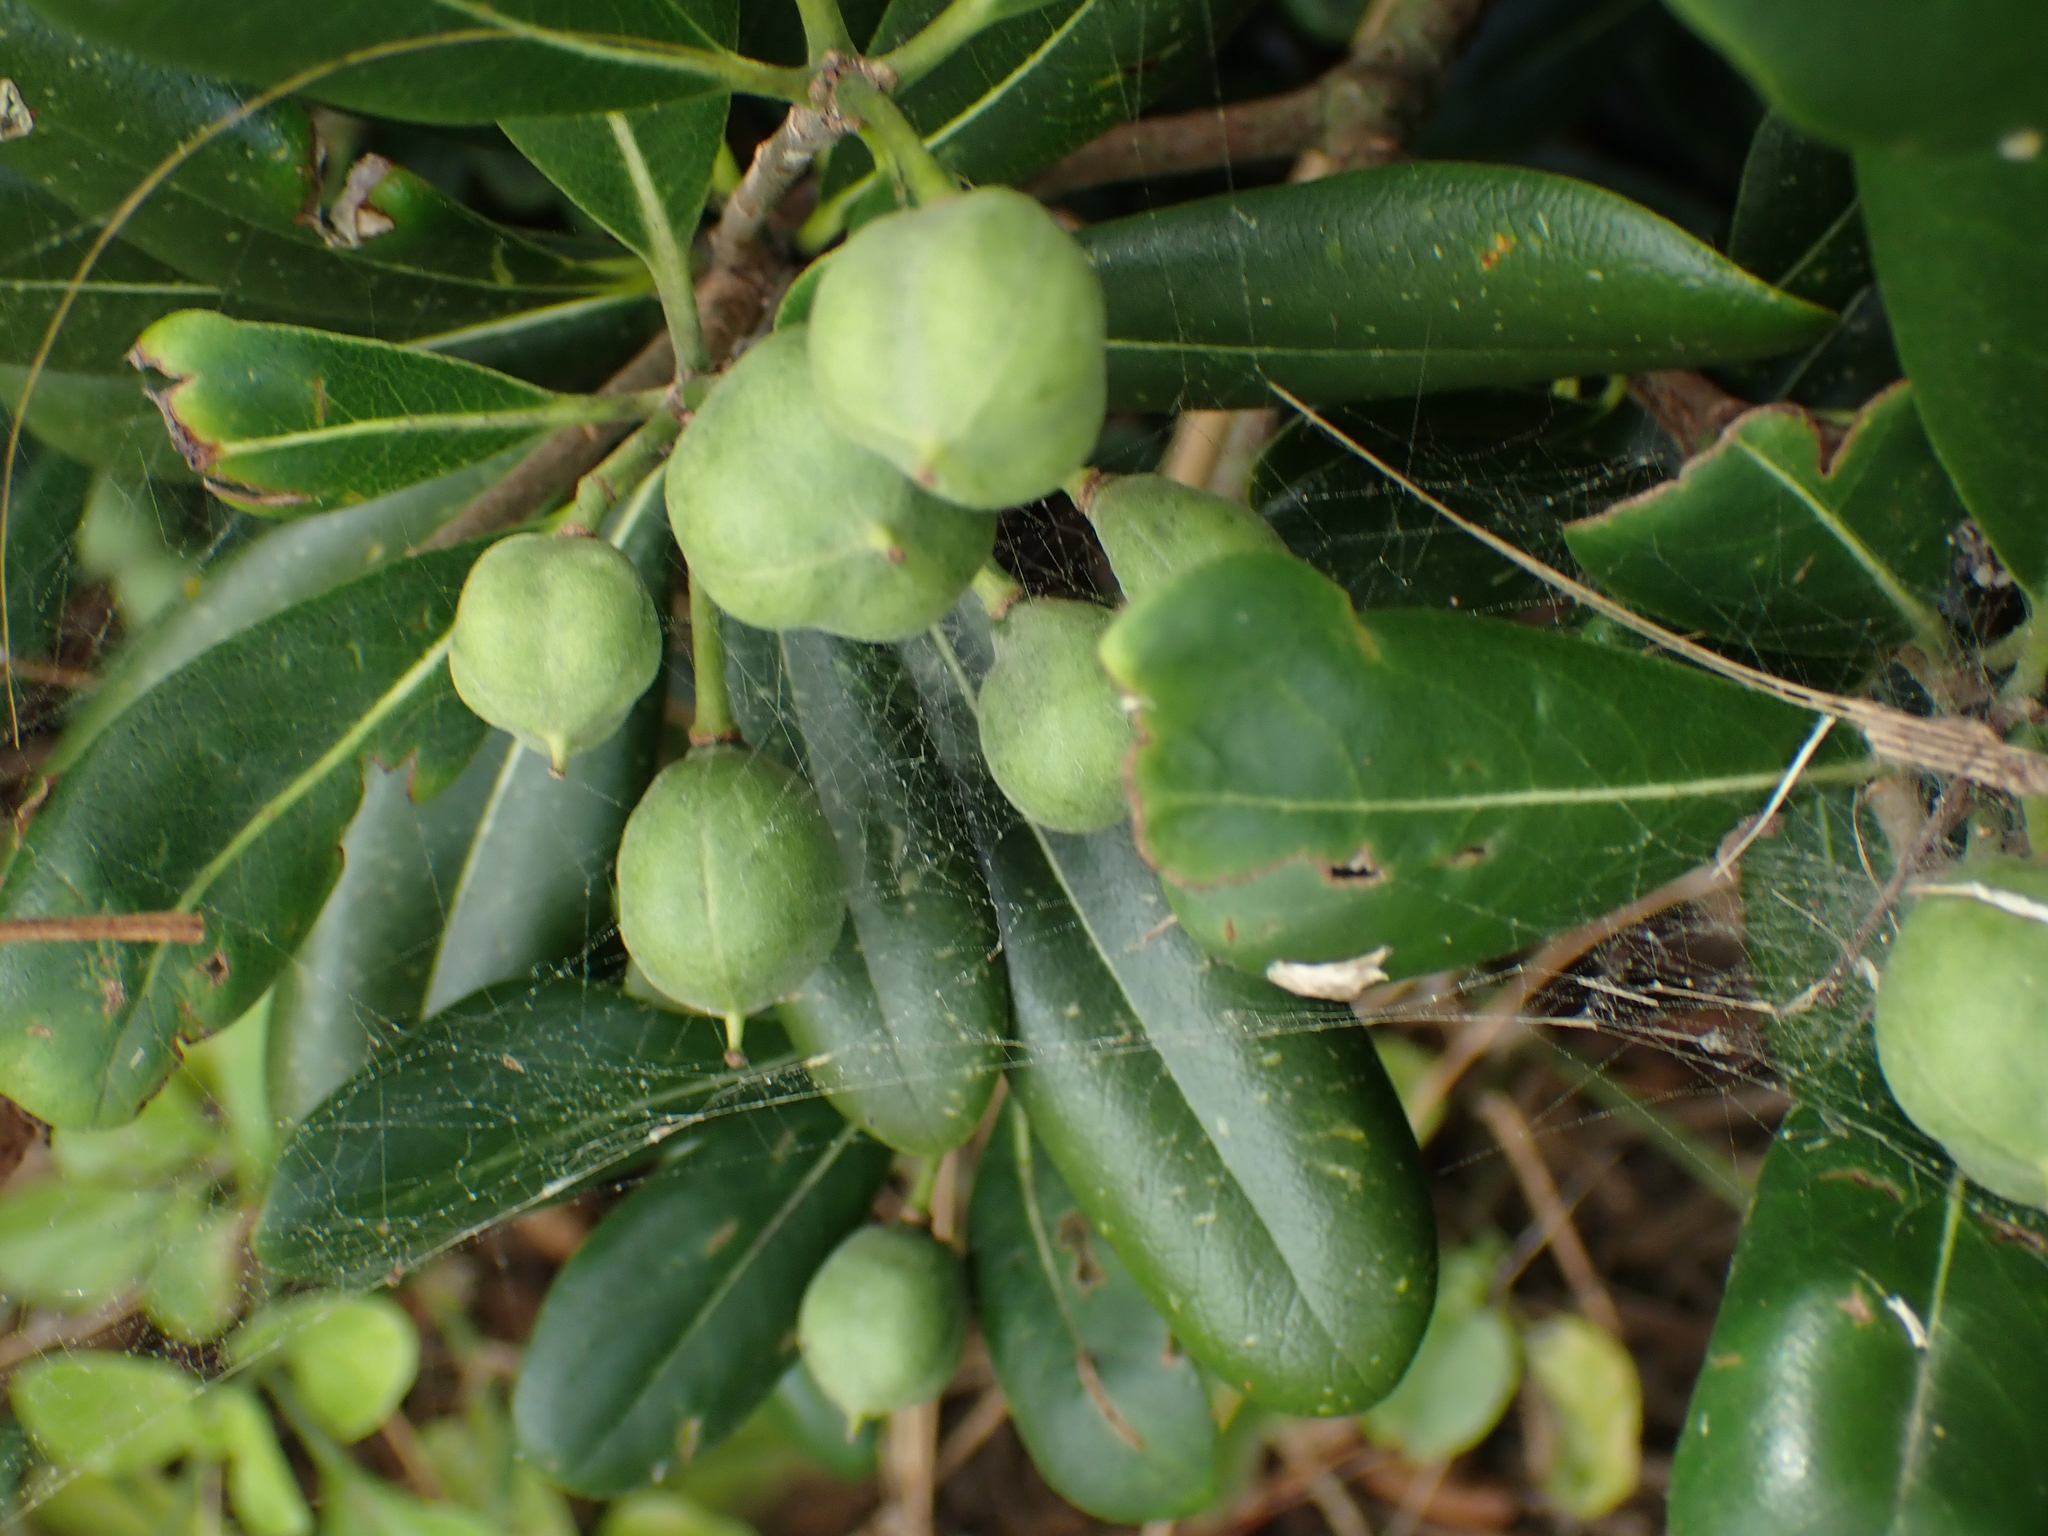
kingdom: Plantae
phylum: Tracheophyta
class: Magnoliopsida
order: Apiales
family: Pittosporaceae
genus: Pittosporum
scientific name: Pittosporum tobira
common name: Japanese cheesewood
